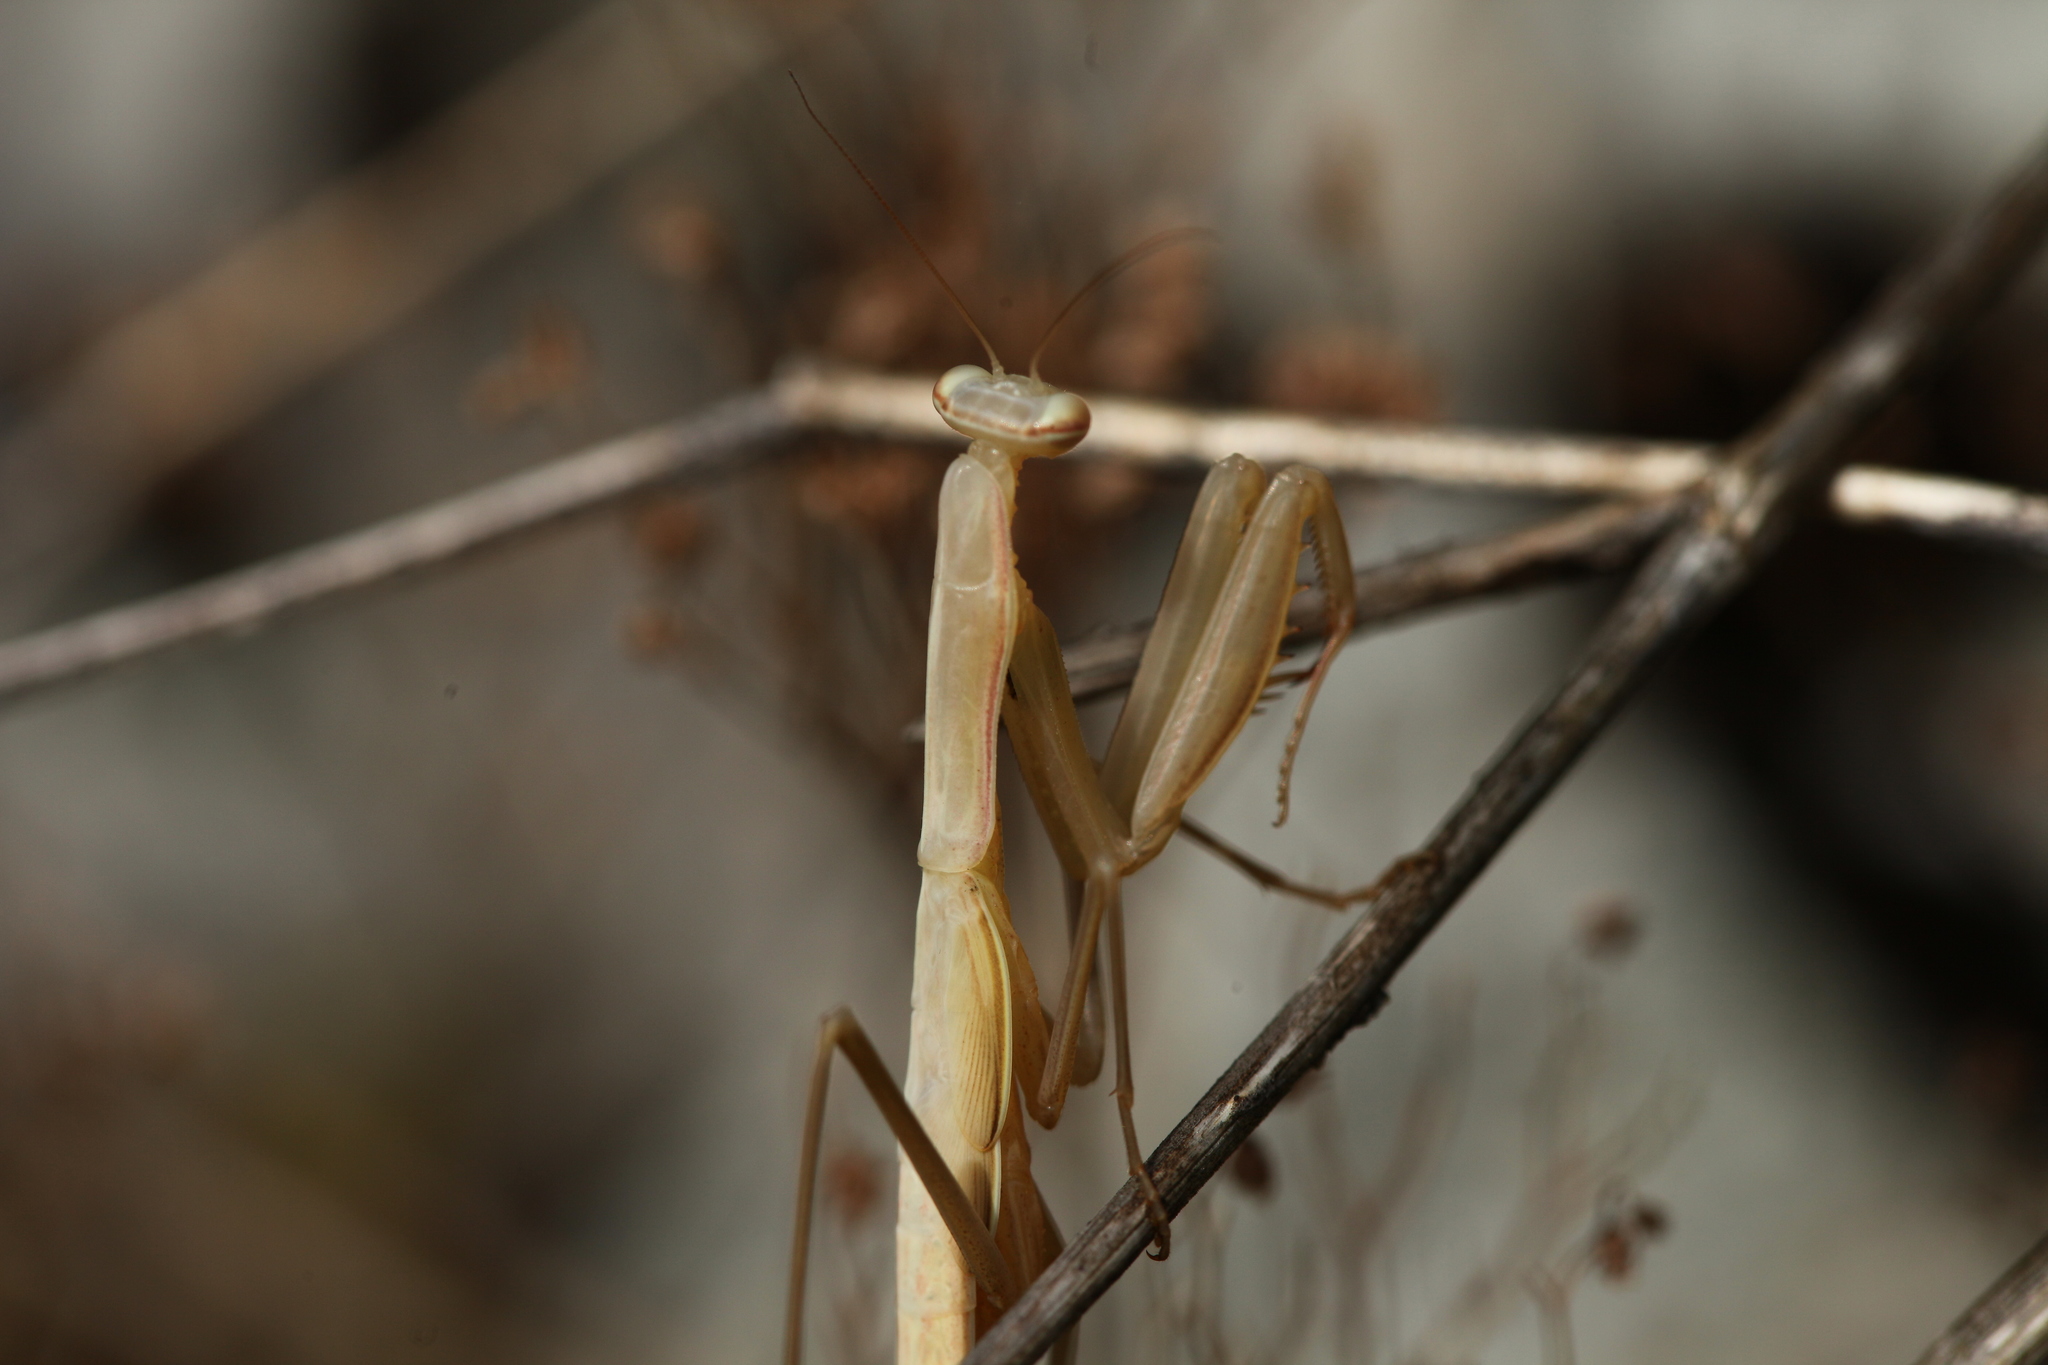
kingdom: Animalia
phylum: Arthropoda
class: Insecta
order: Mantodea
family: Mantidae
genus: Mantis
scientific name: Mantis religiosa
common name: Praying mantis
